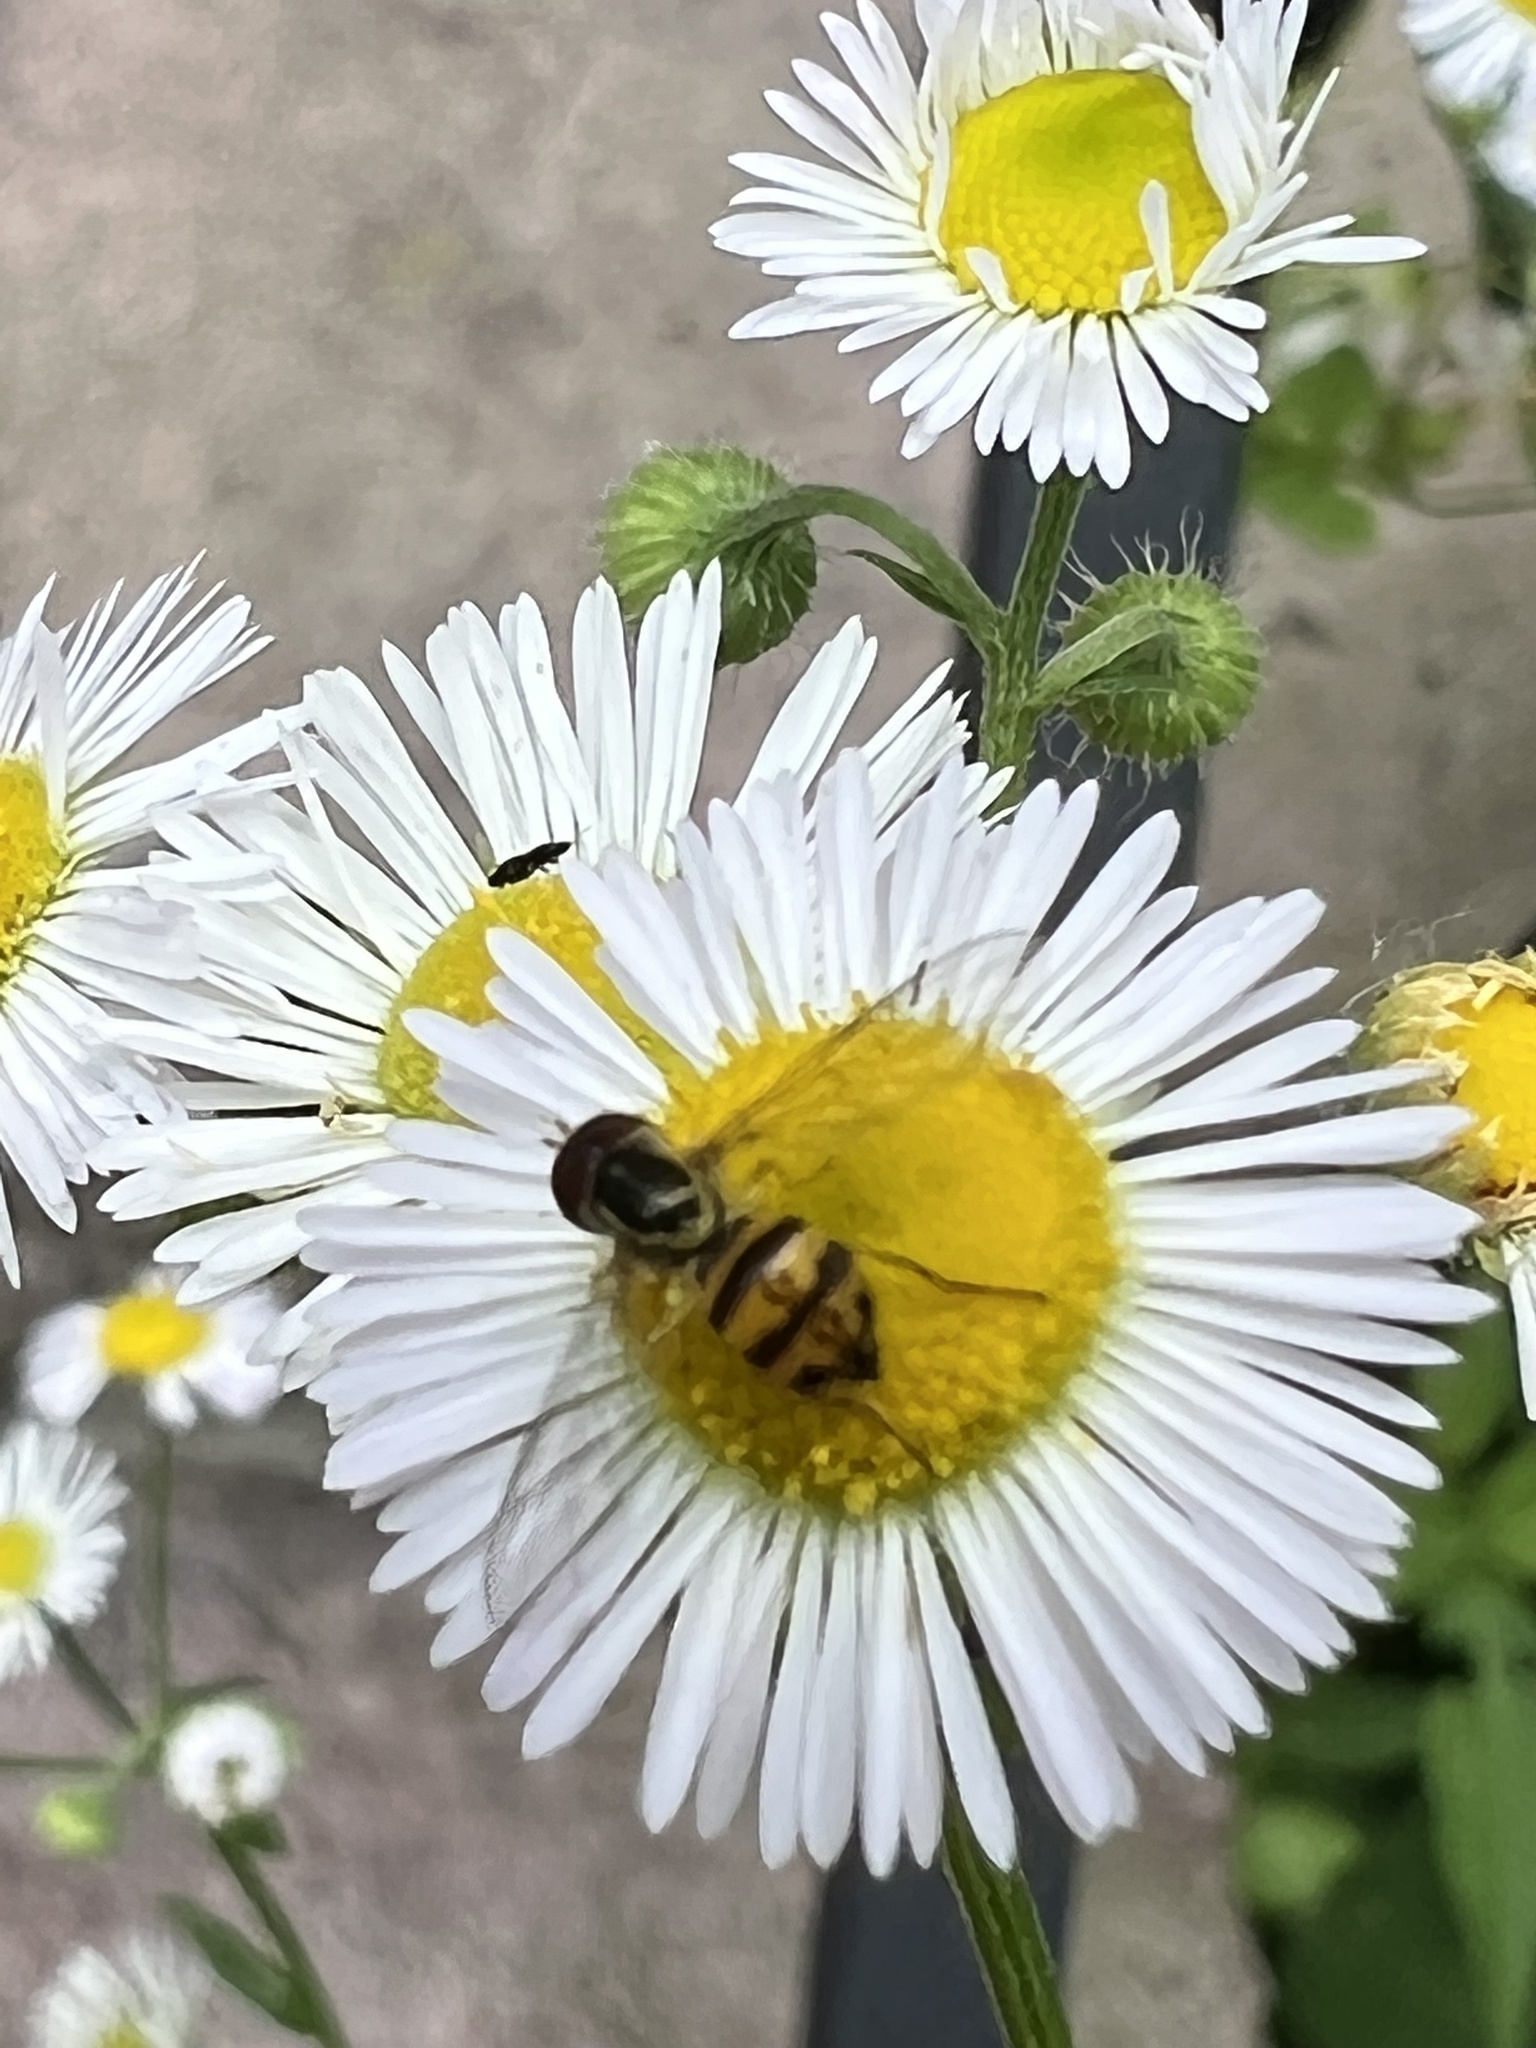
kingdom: Animalia
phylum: Arthropoda
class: Insecta
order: Diptera
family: Syrphidae
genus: Toxomerus
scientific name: Toxomerus geminatus
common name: Eastern calligrapher
